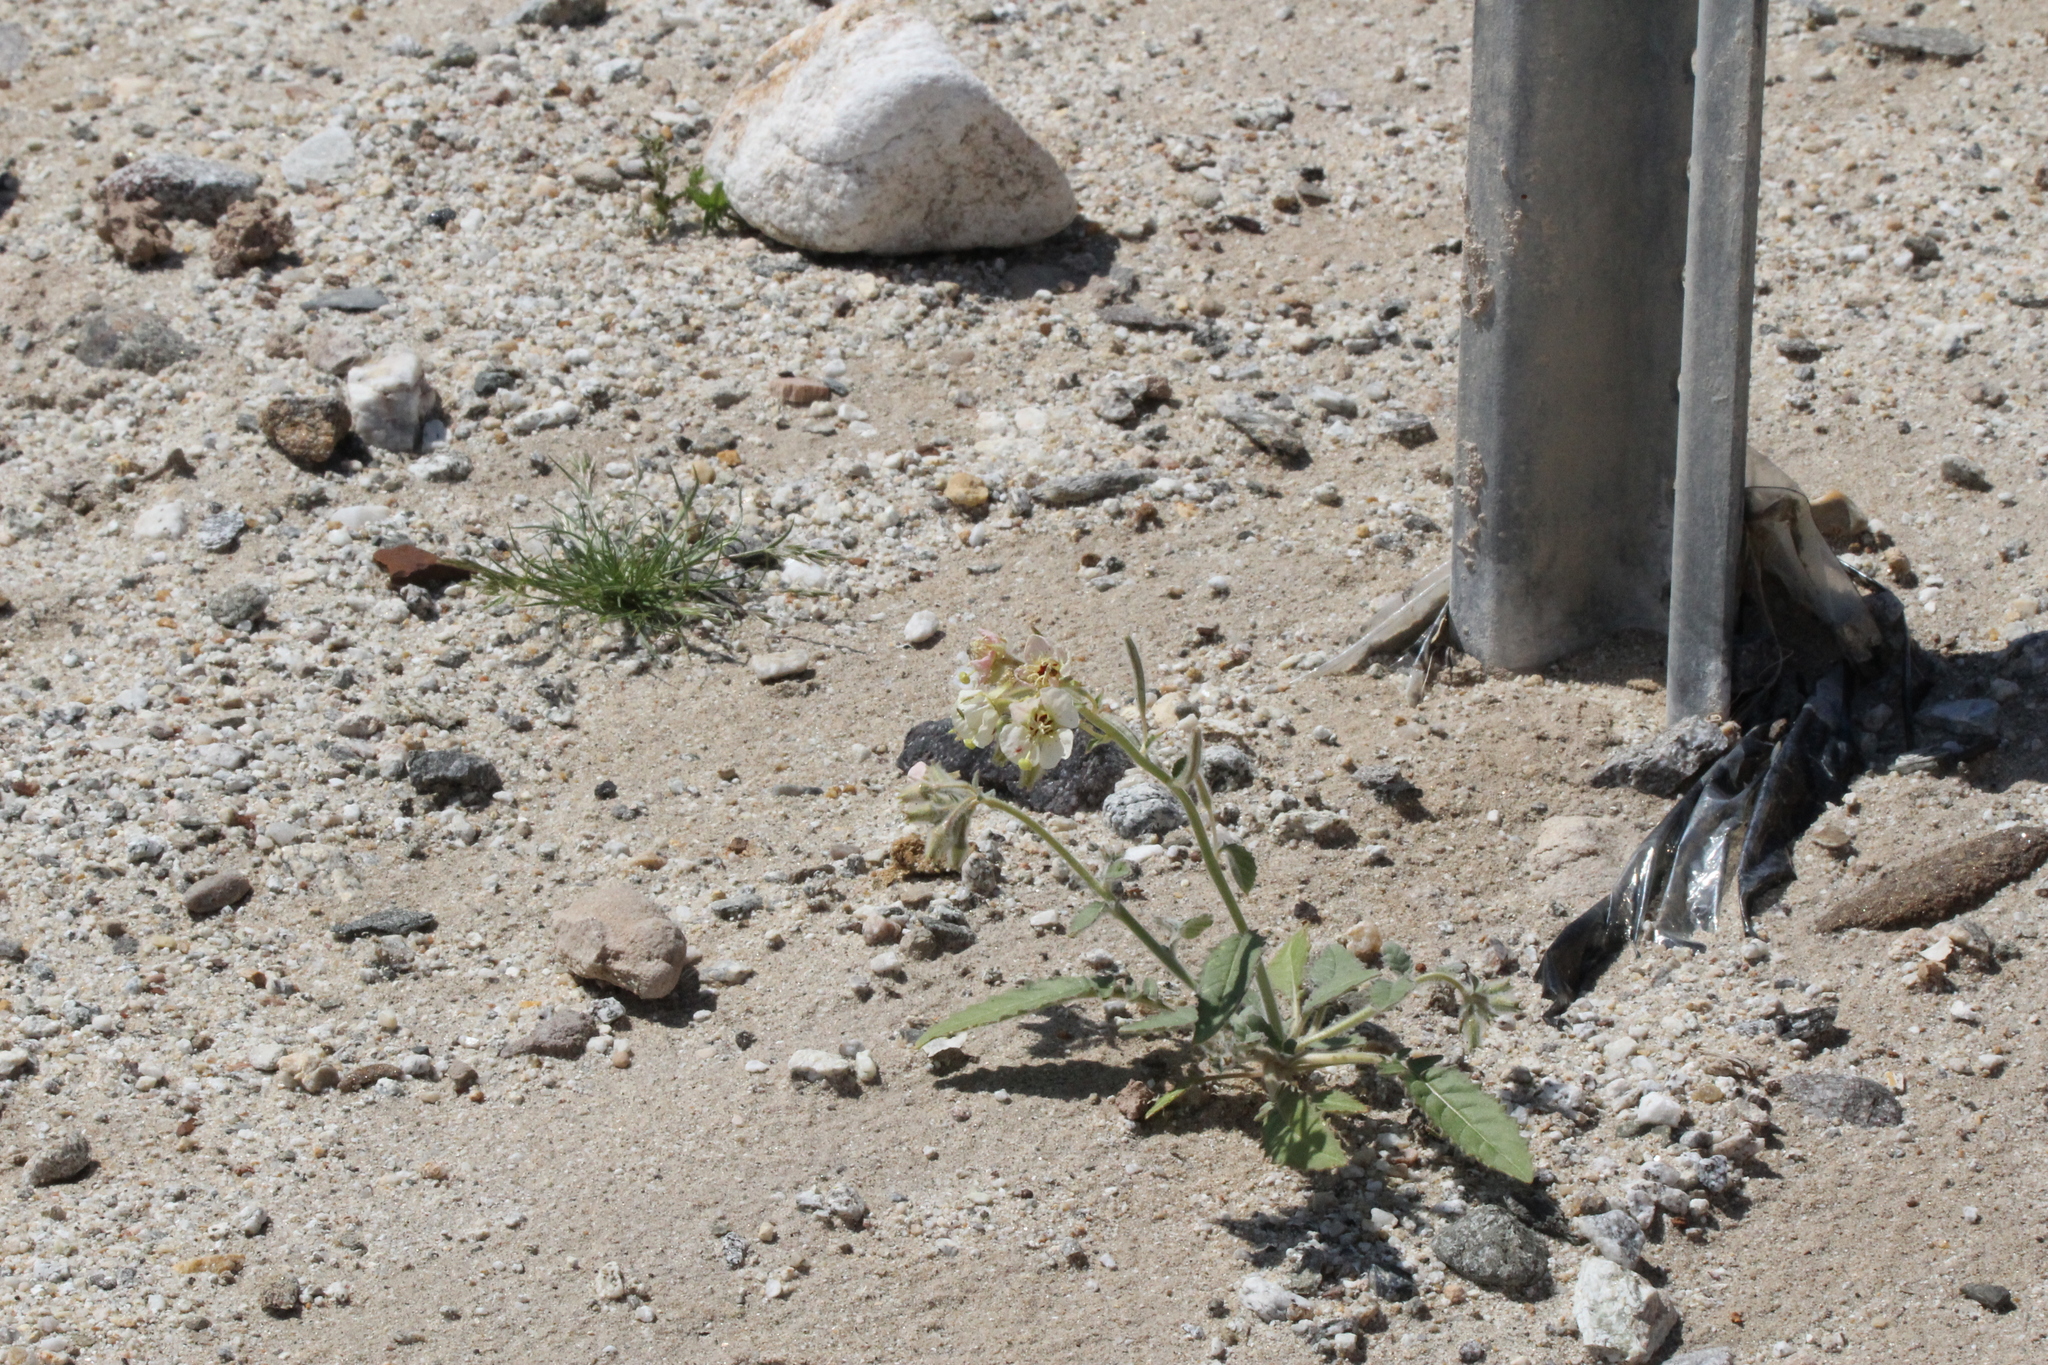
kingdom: Plantae
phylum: Tracheophyta
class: Magnoliopsida
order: Myrtales
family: Onagraceae
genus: Chylismia
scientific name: Chylismia claviformis
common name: Browneyes
